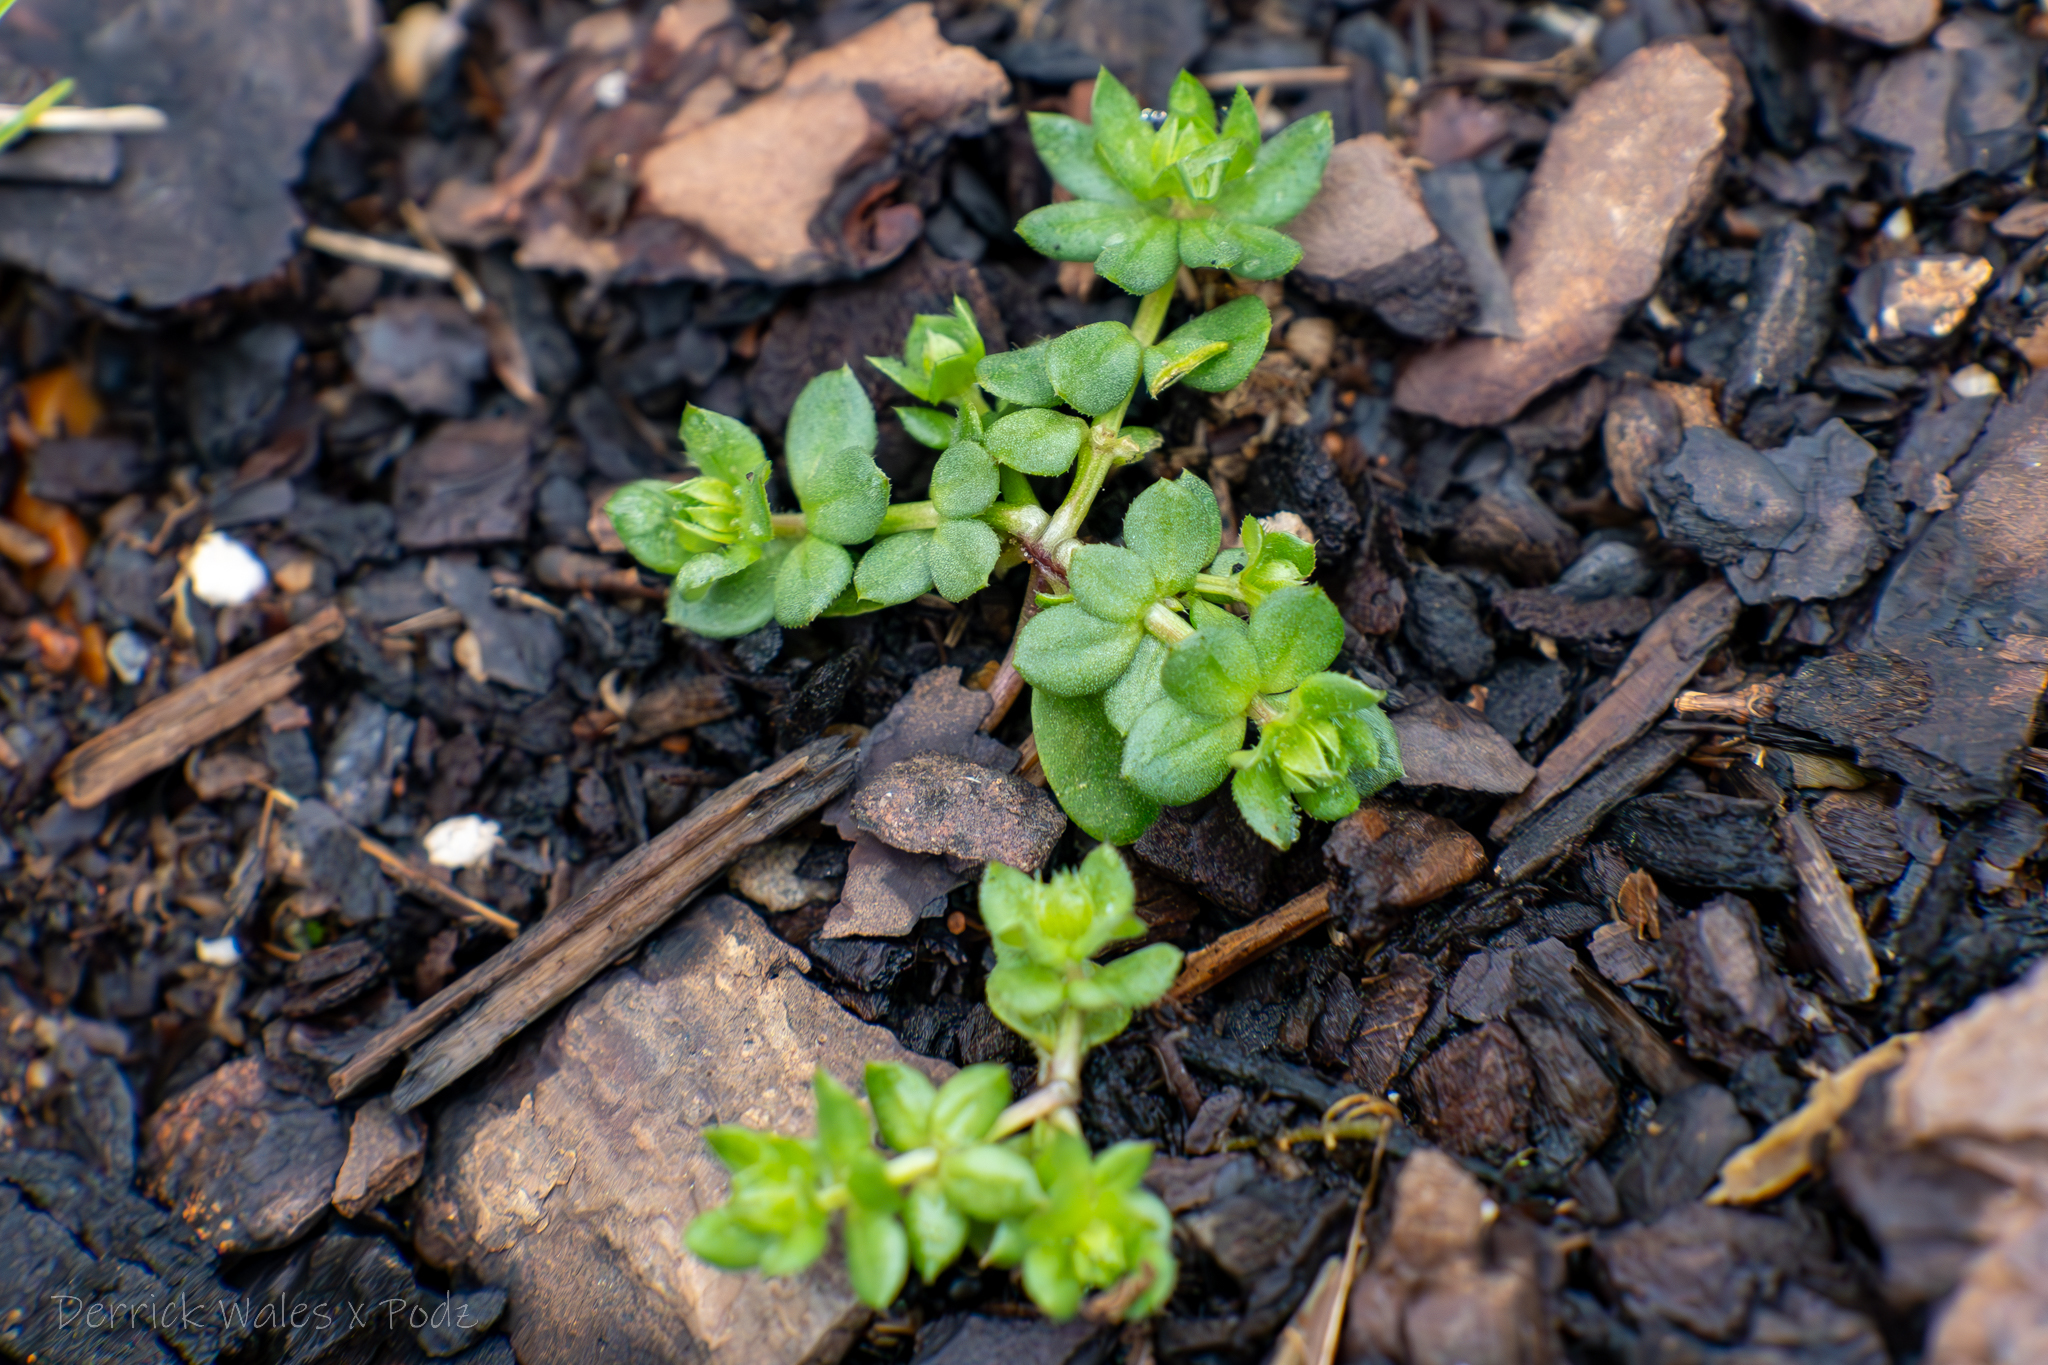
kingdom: Plantae
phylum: Tracheophyta
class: Magnoliopsida
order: Gentianales
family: Rubiaceae
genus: Sherardia
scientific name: Sherardia arvensis
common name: Field madder
